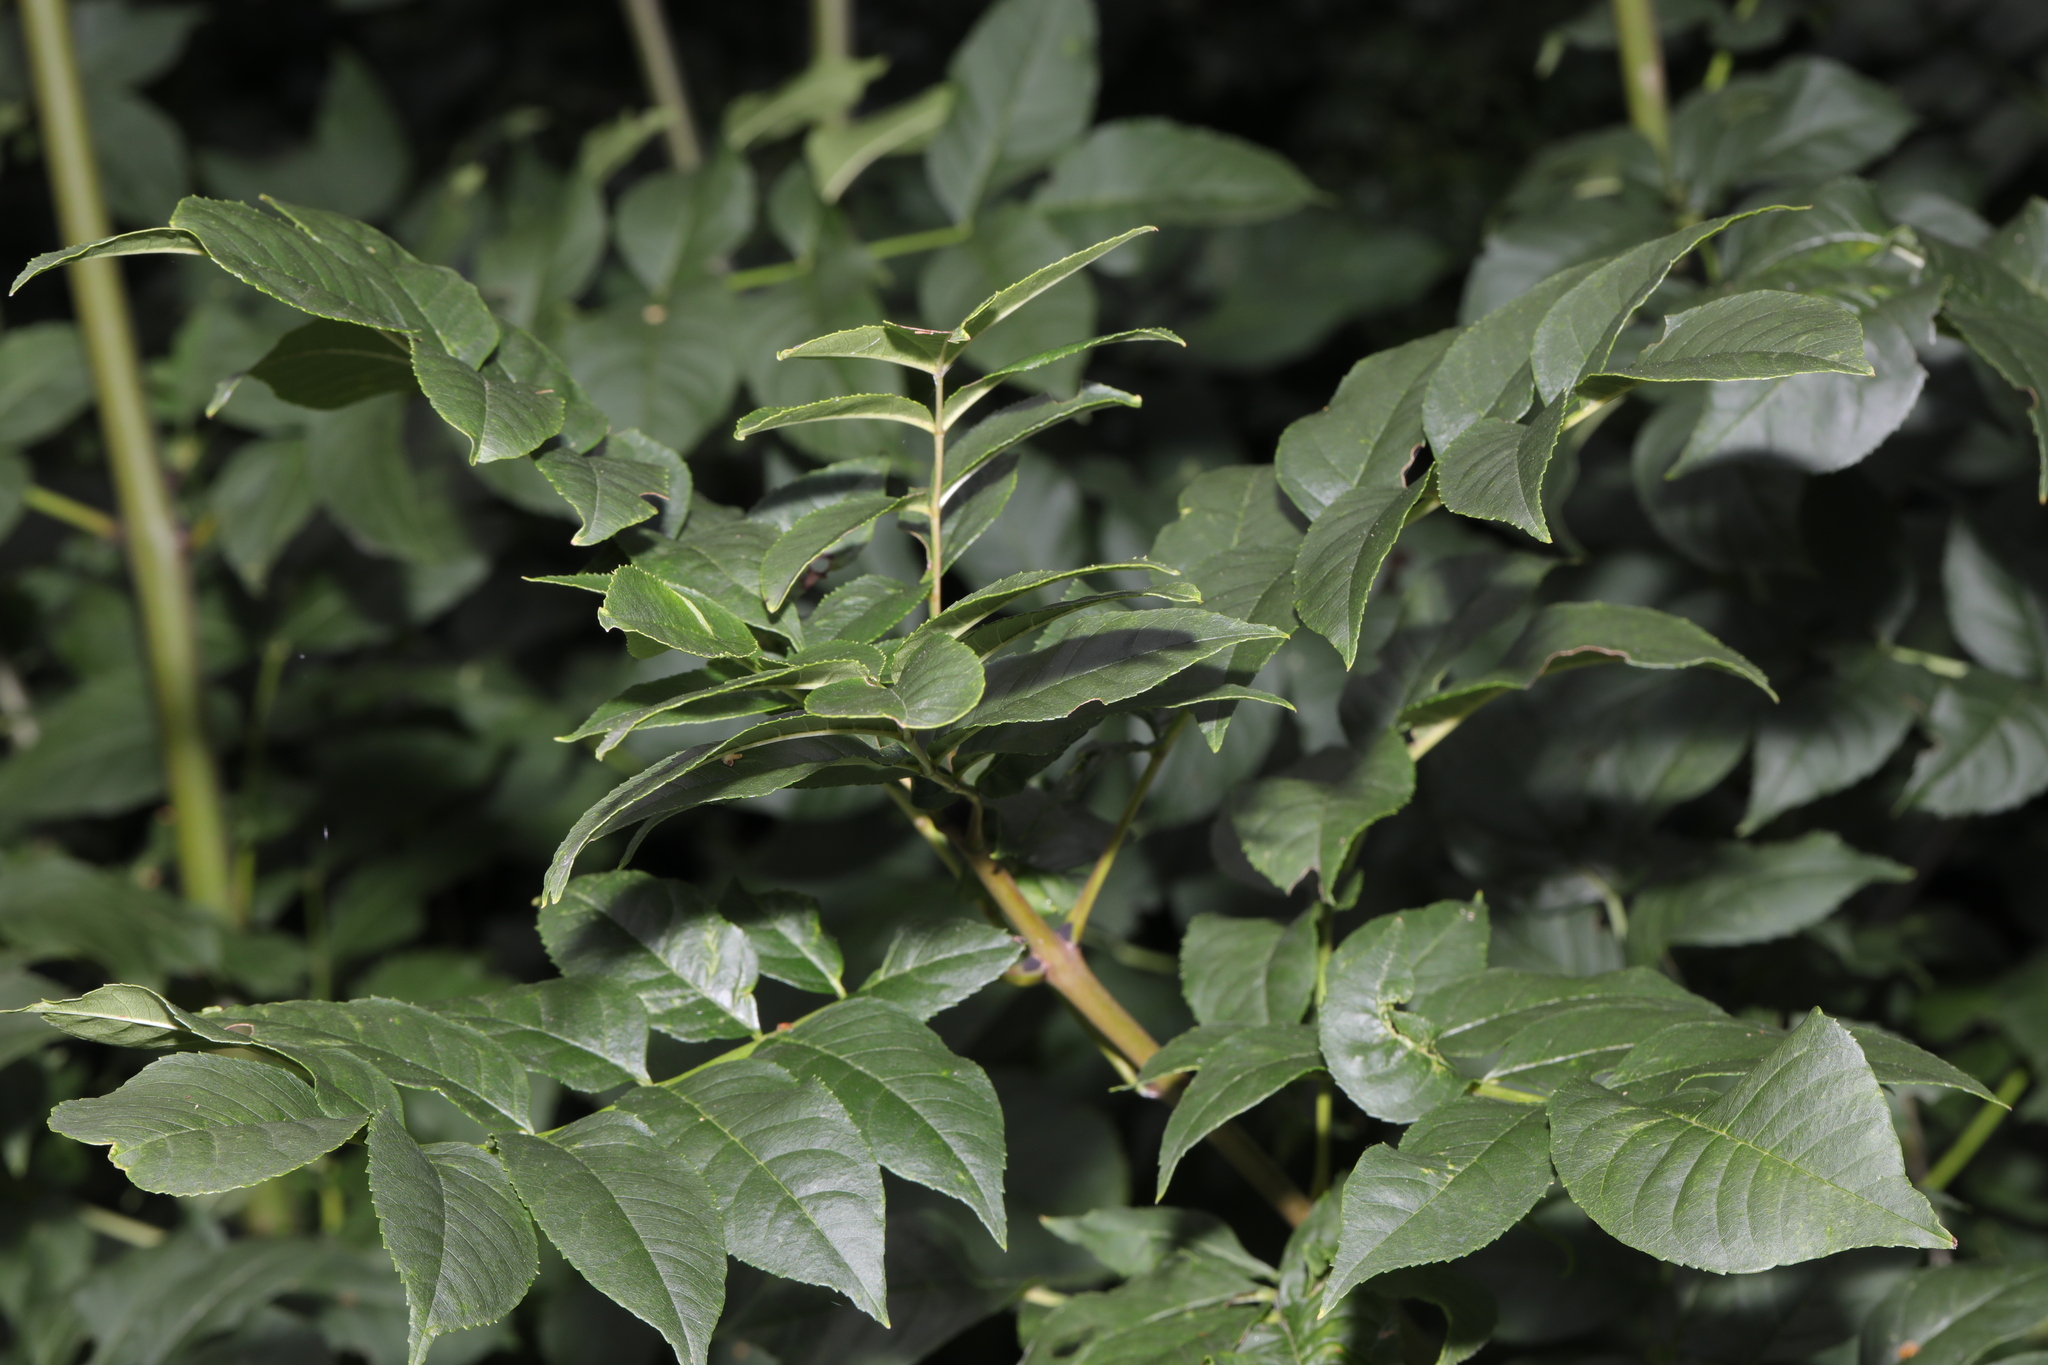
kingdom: Plantae
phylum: Tracheophyta
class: Magnoliopsida
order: Lamiales
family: Oleaceae
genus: Fraxinus
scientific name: Fraxinus excelsior
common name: European ash
